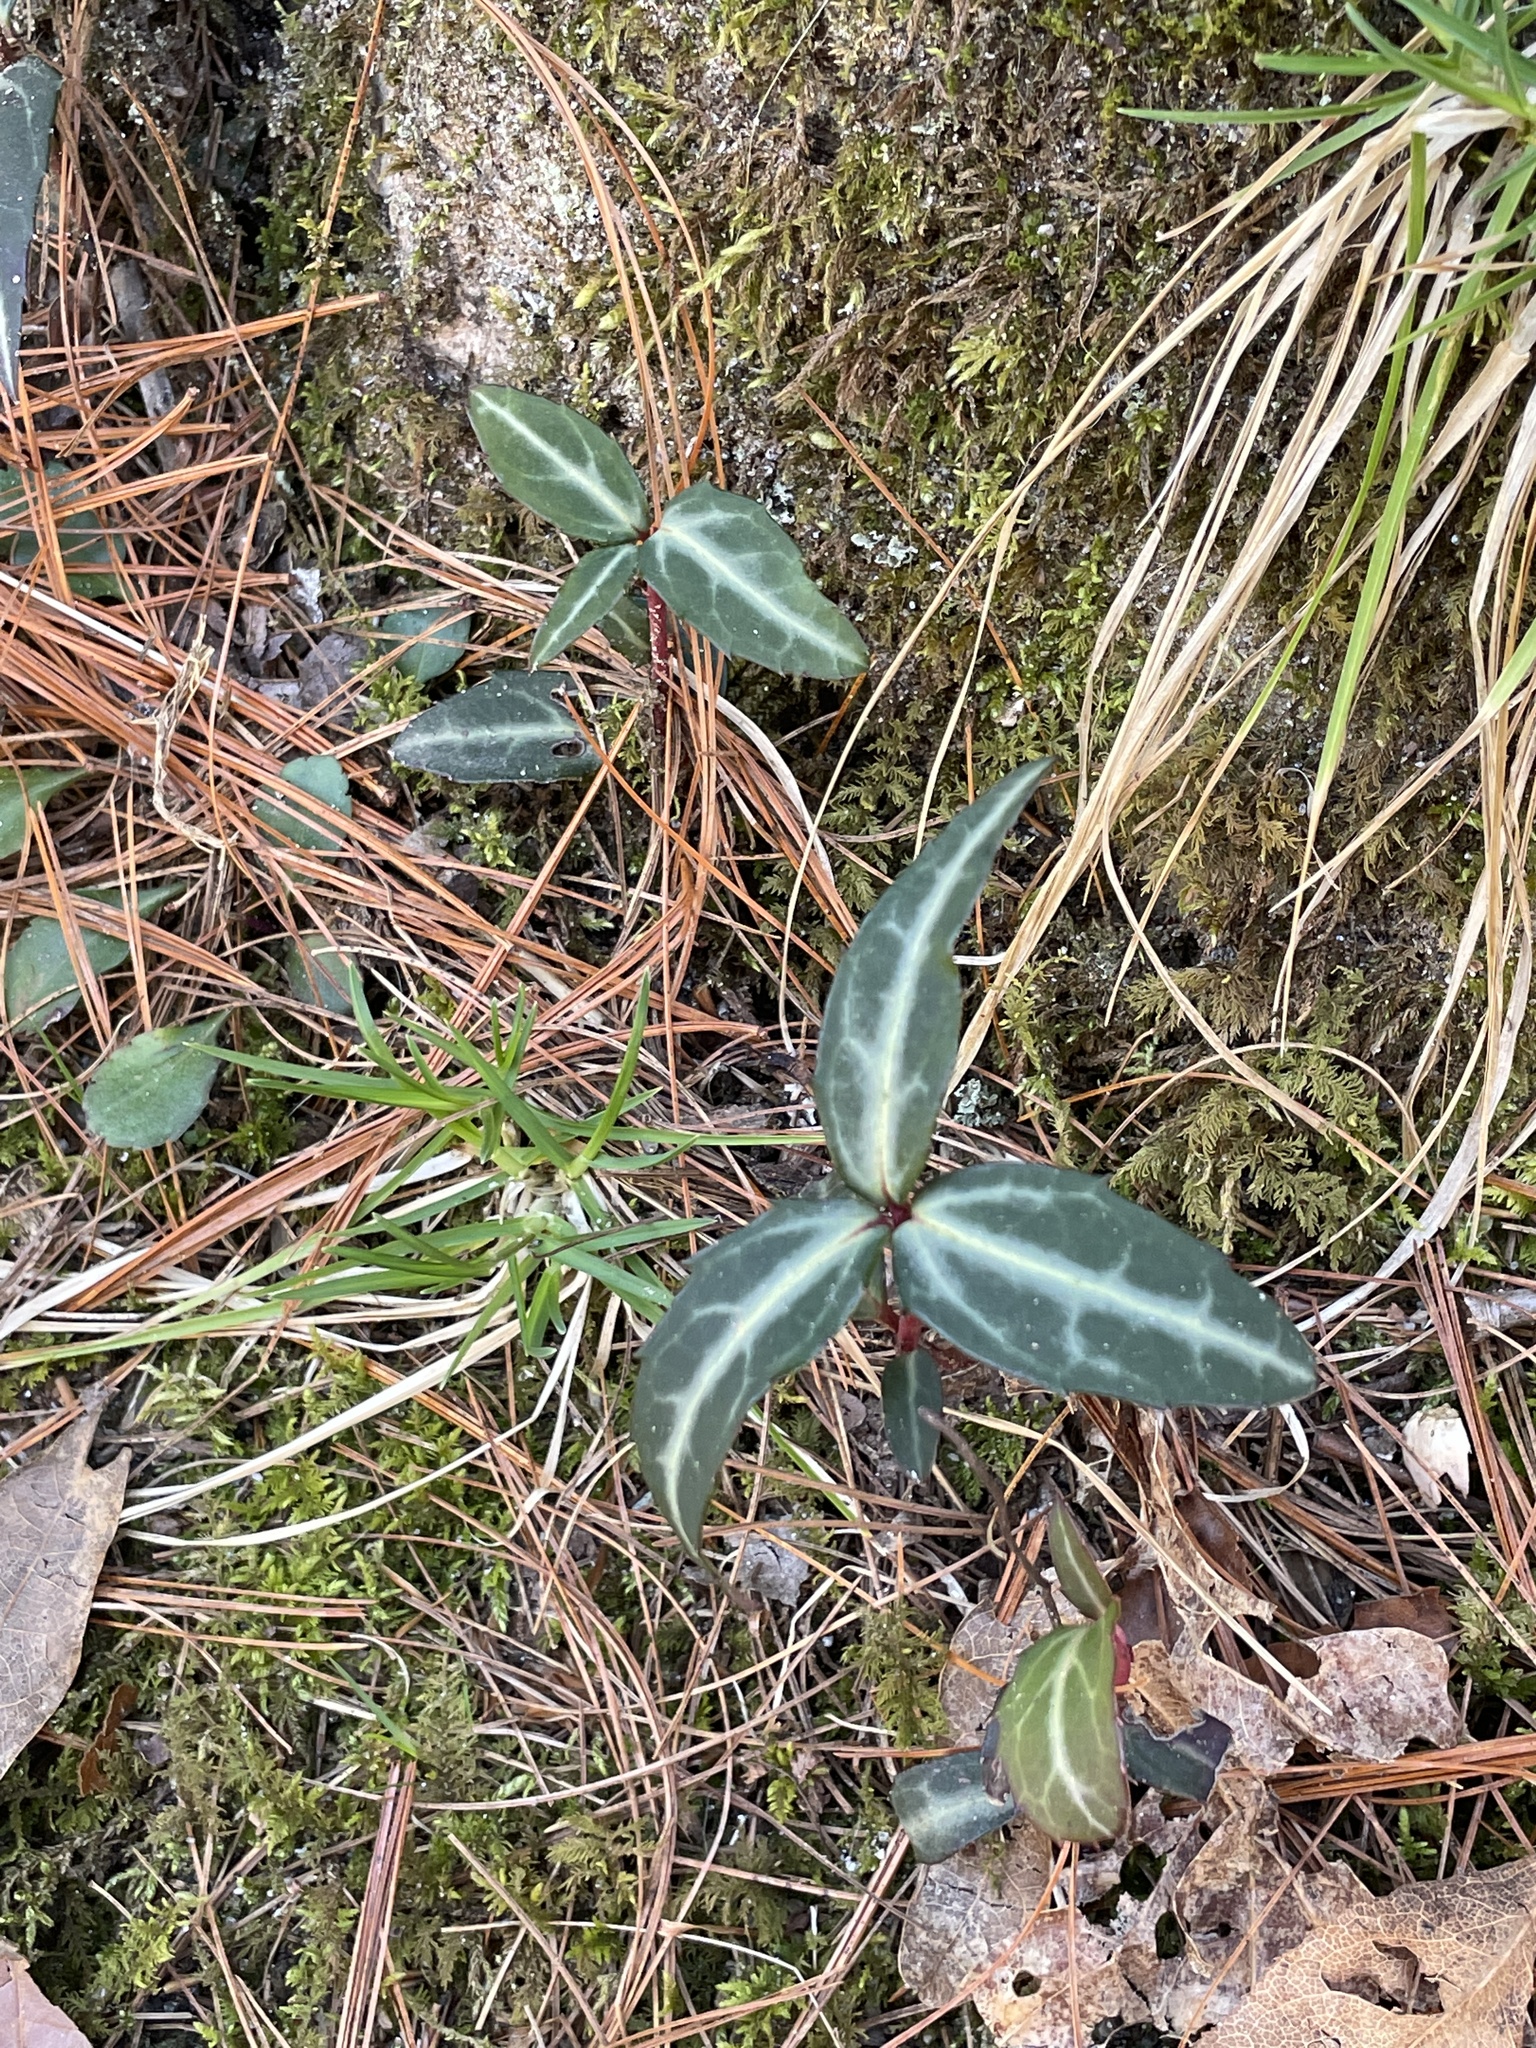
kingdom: Plantae
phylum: Tracheophyta
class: Magnoliopsida
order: Ericales
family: Ericaceae
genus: Chimaphila
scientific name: Chimaphila maculata
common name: Spotted pipsissewa
